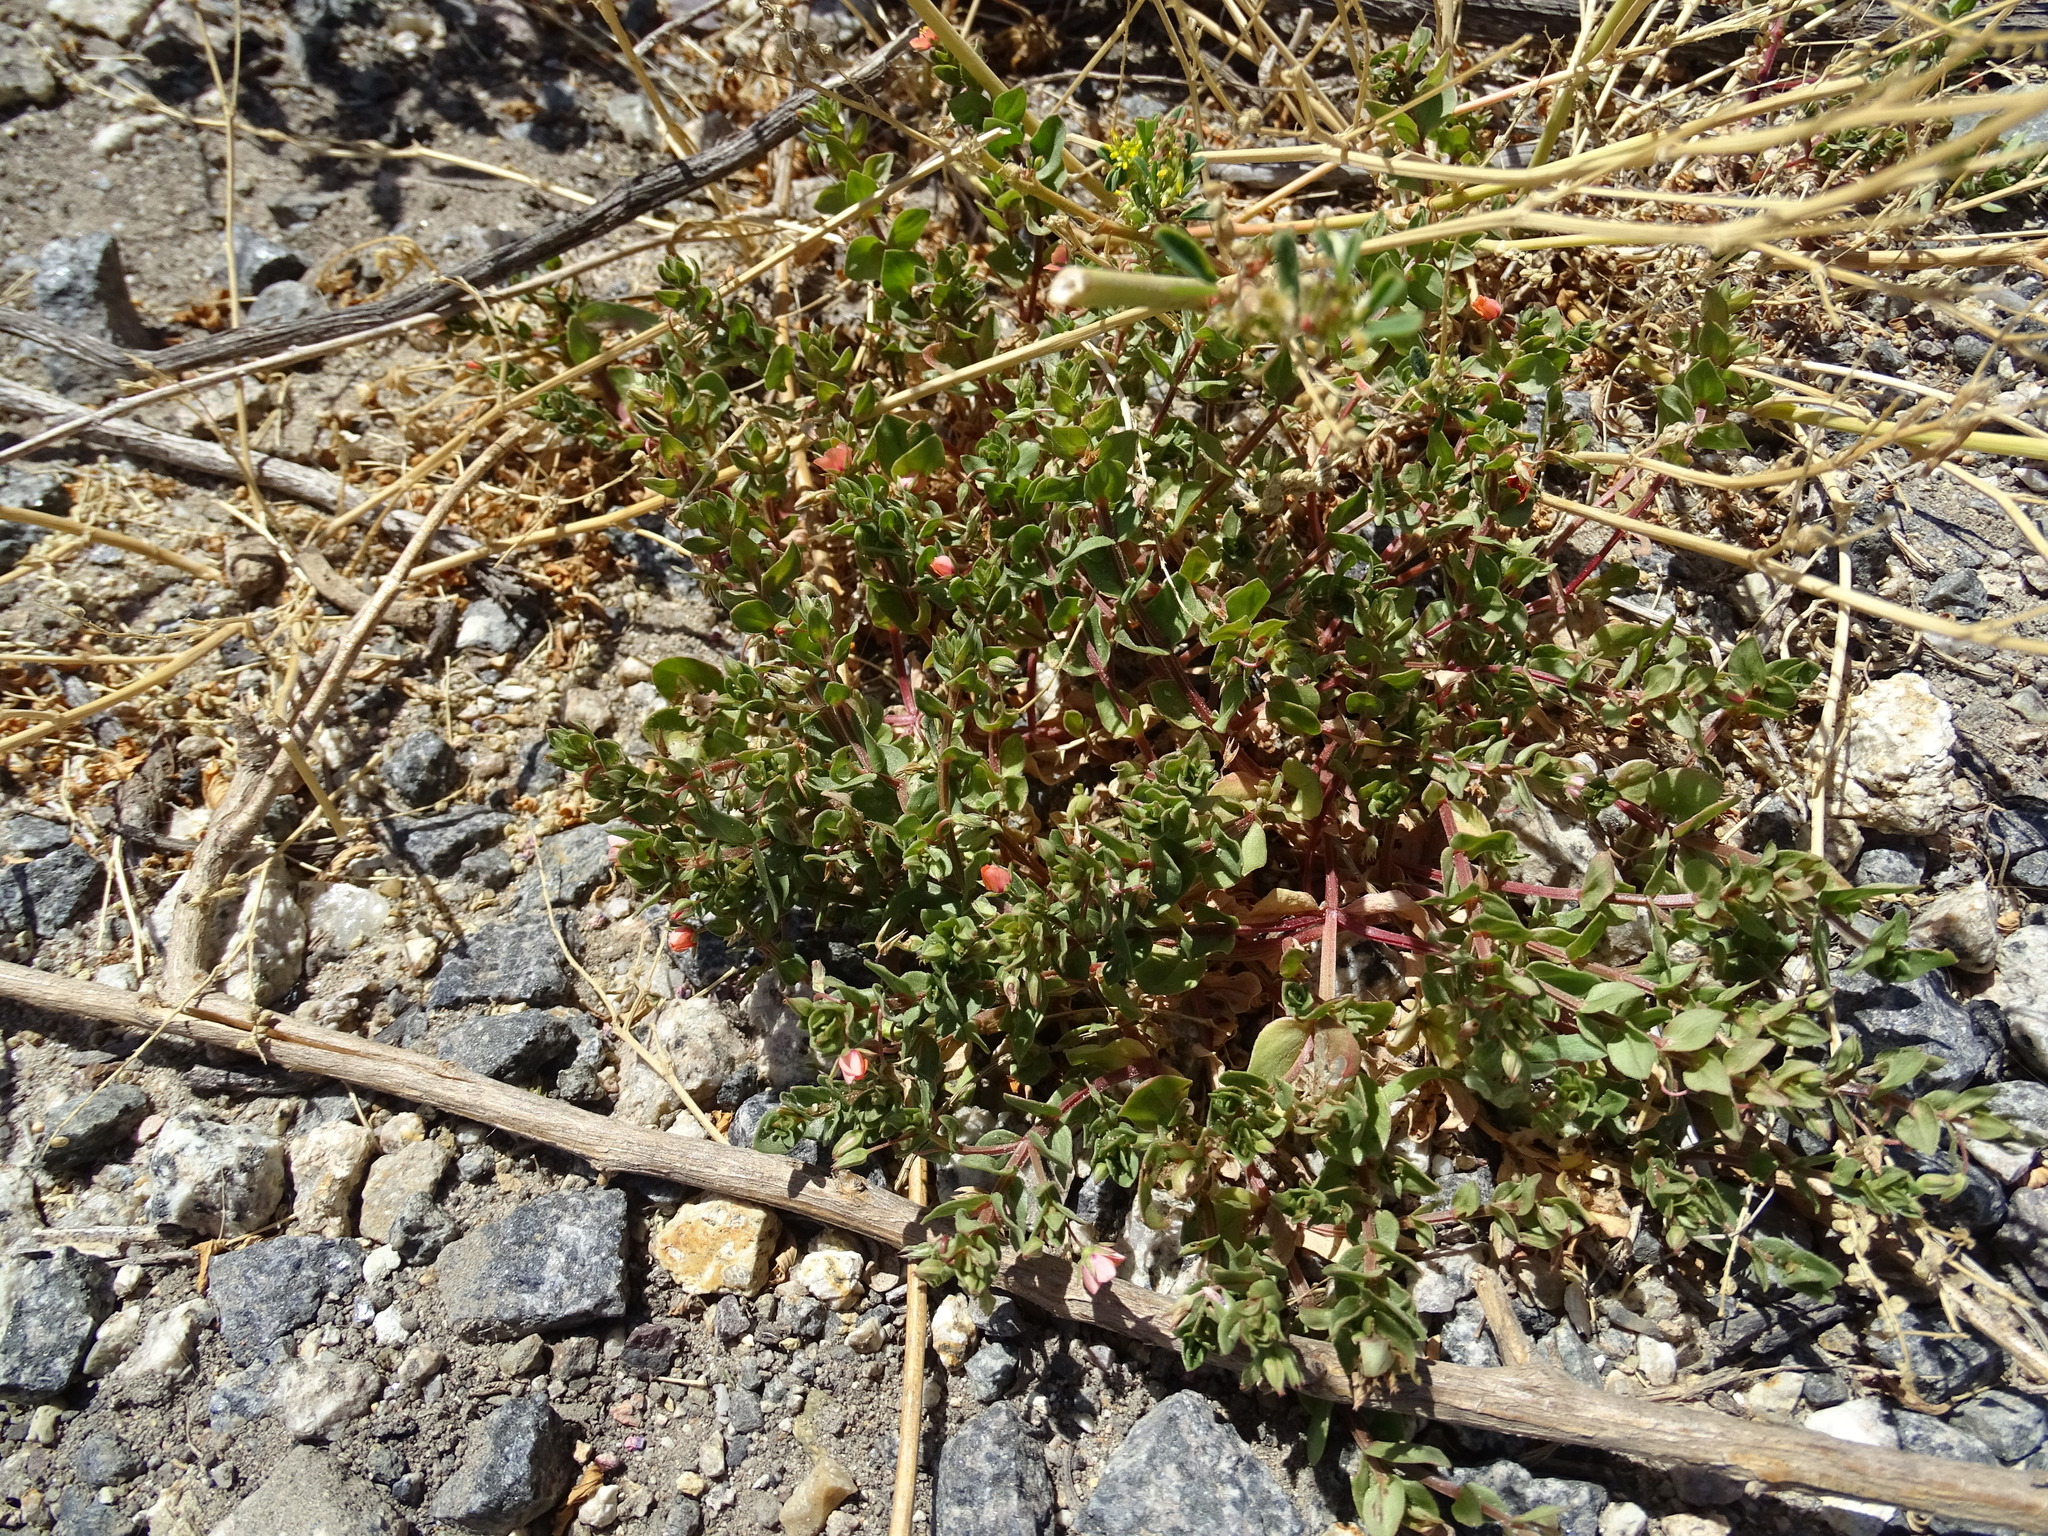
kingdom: Plantae
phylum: Tracheophyta
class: Magnoliopsida
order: Ericales
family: Primulaceae
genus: Lysimachia
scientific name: Lysimachia arvensis
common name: Scarlet pimpernel
